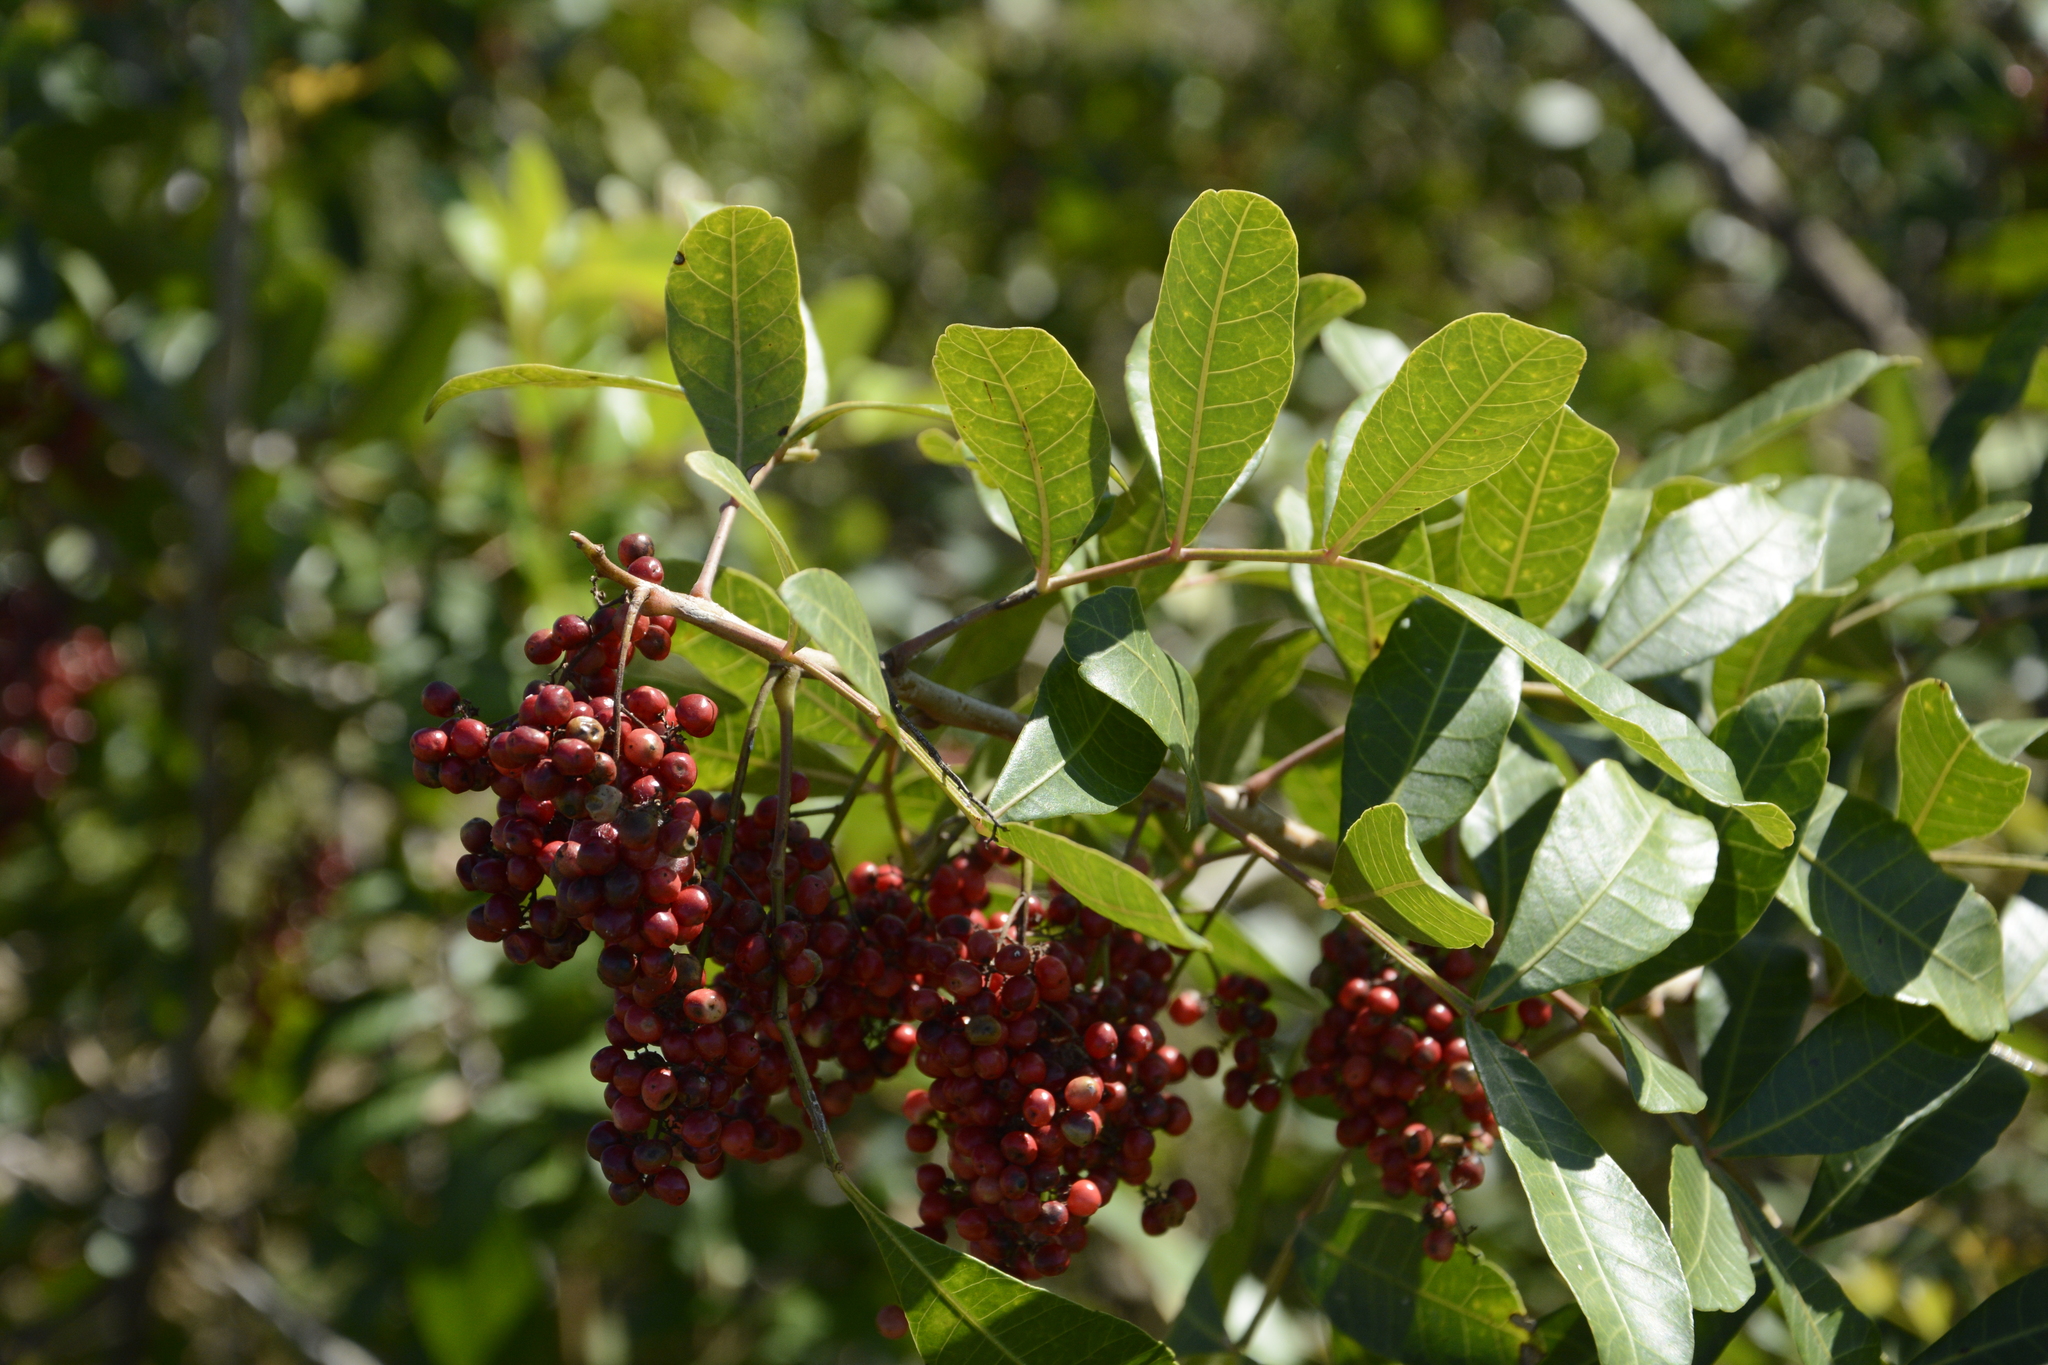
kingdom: Plantae
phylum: Tracheophyta
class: Magnoliopsida
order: Sapindales
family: Anacardiaceae
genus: Schinus
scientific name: Schinus terebinthifolia
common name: Brazilian peppertree
